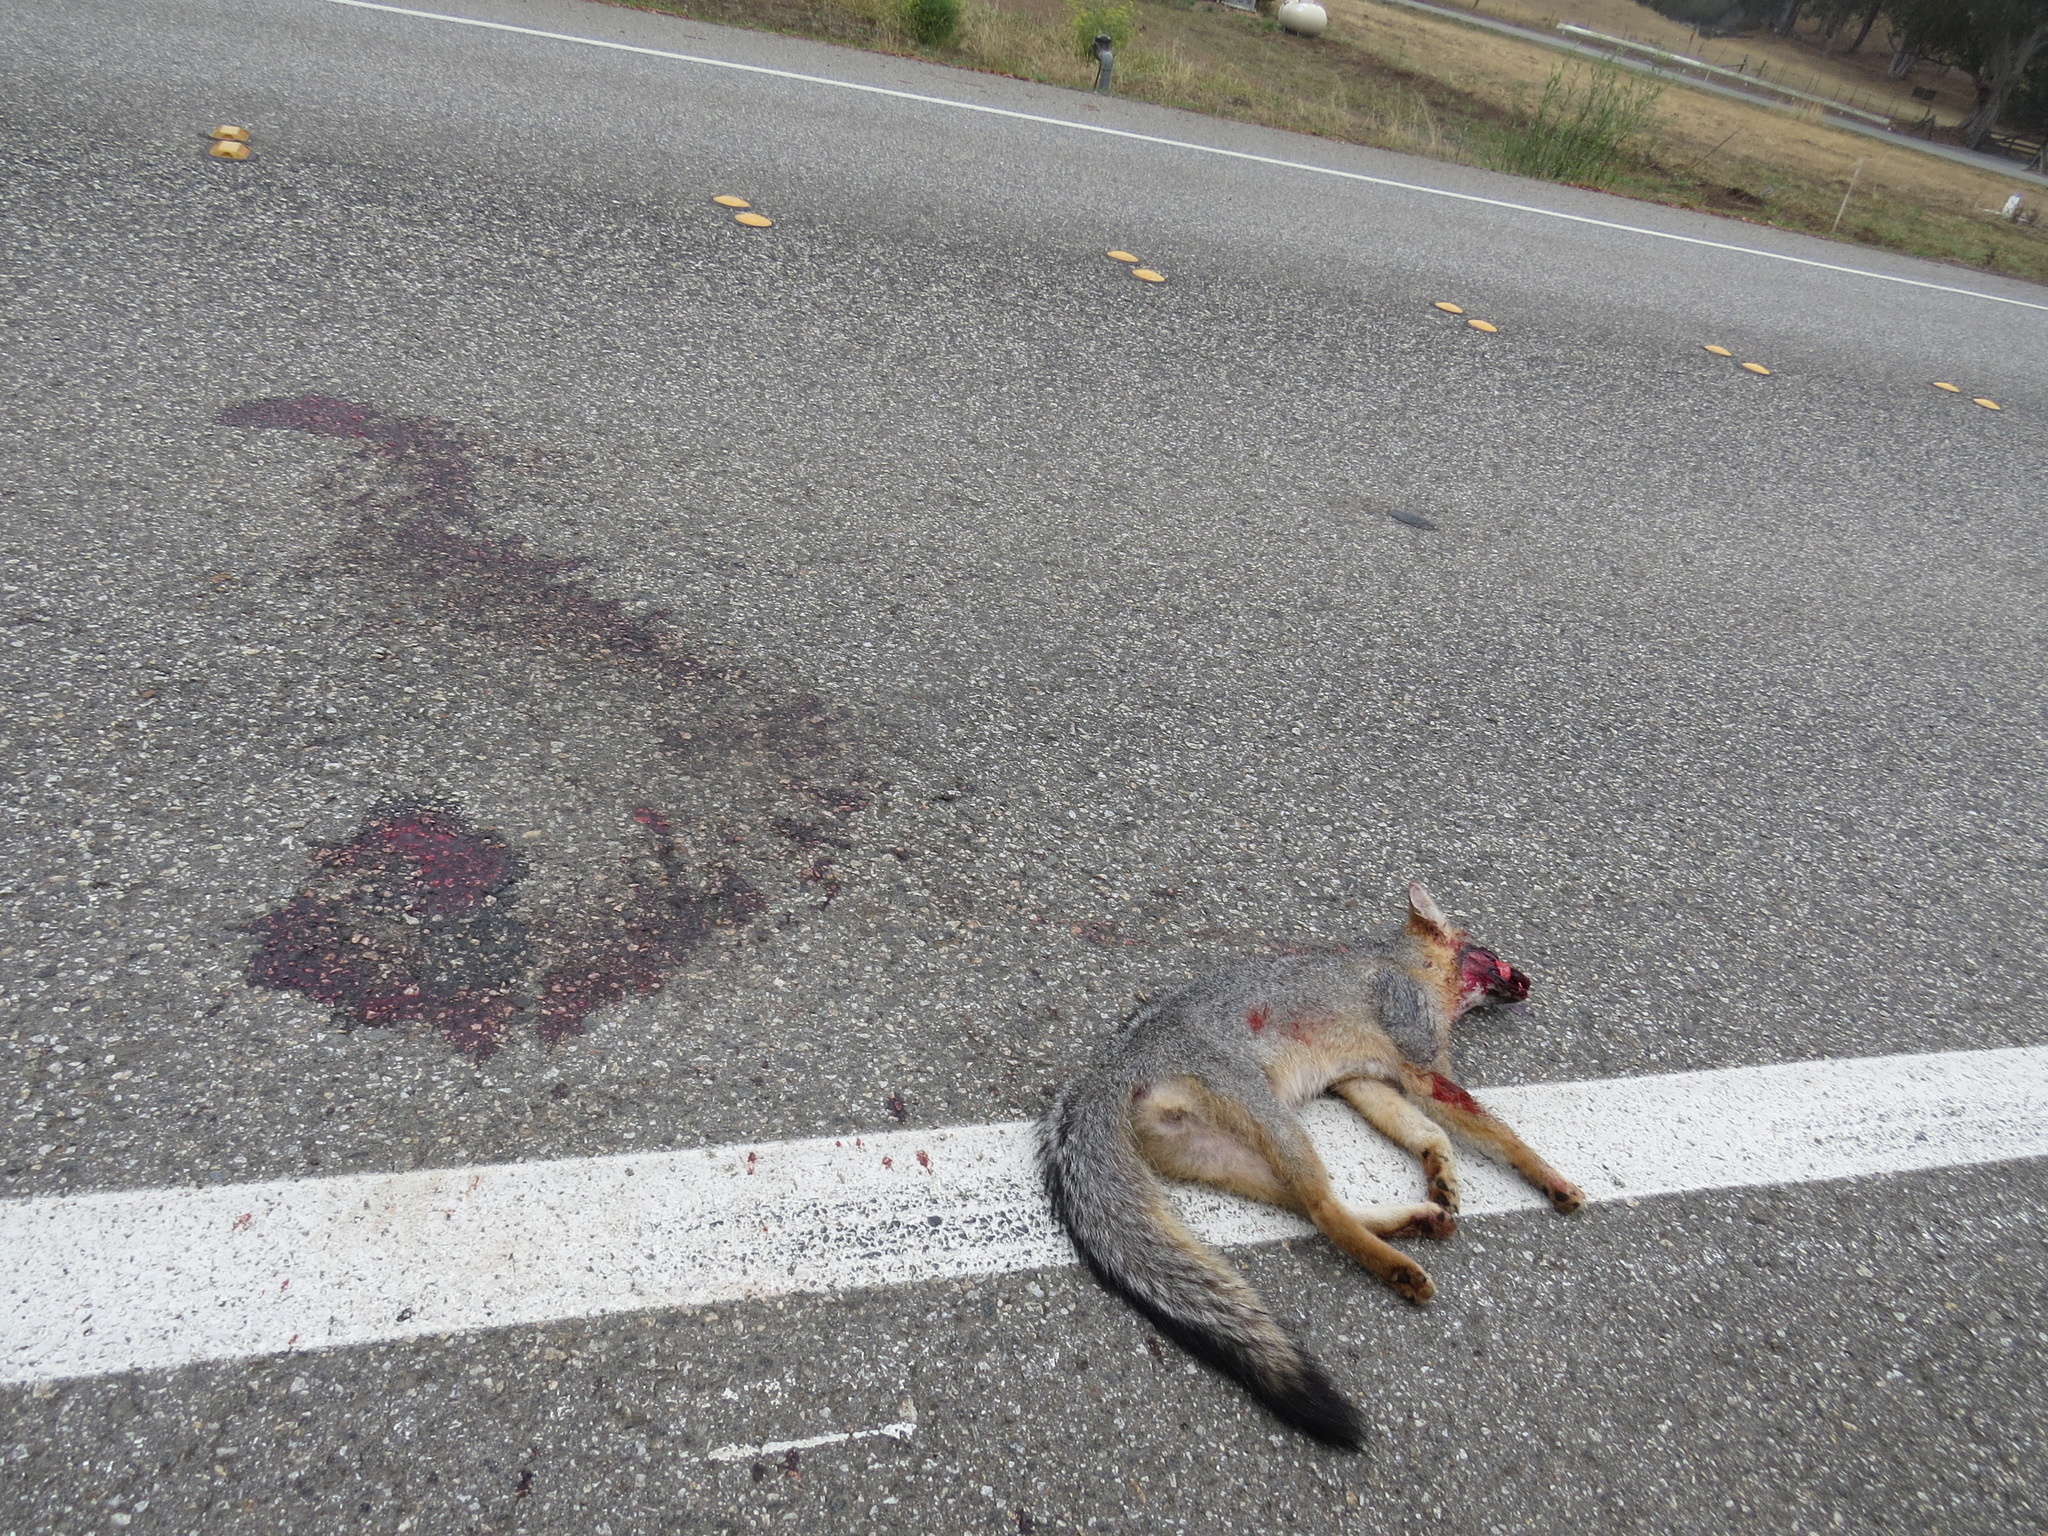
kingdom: Animalia
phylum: Chordata
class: Mammalia
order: Carnivora
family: Canidae
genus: Urocyon
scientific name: Urocyon cinereoargenteus
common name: Gray fox
